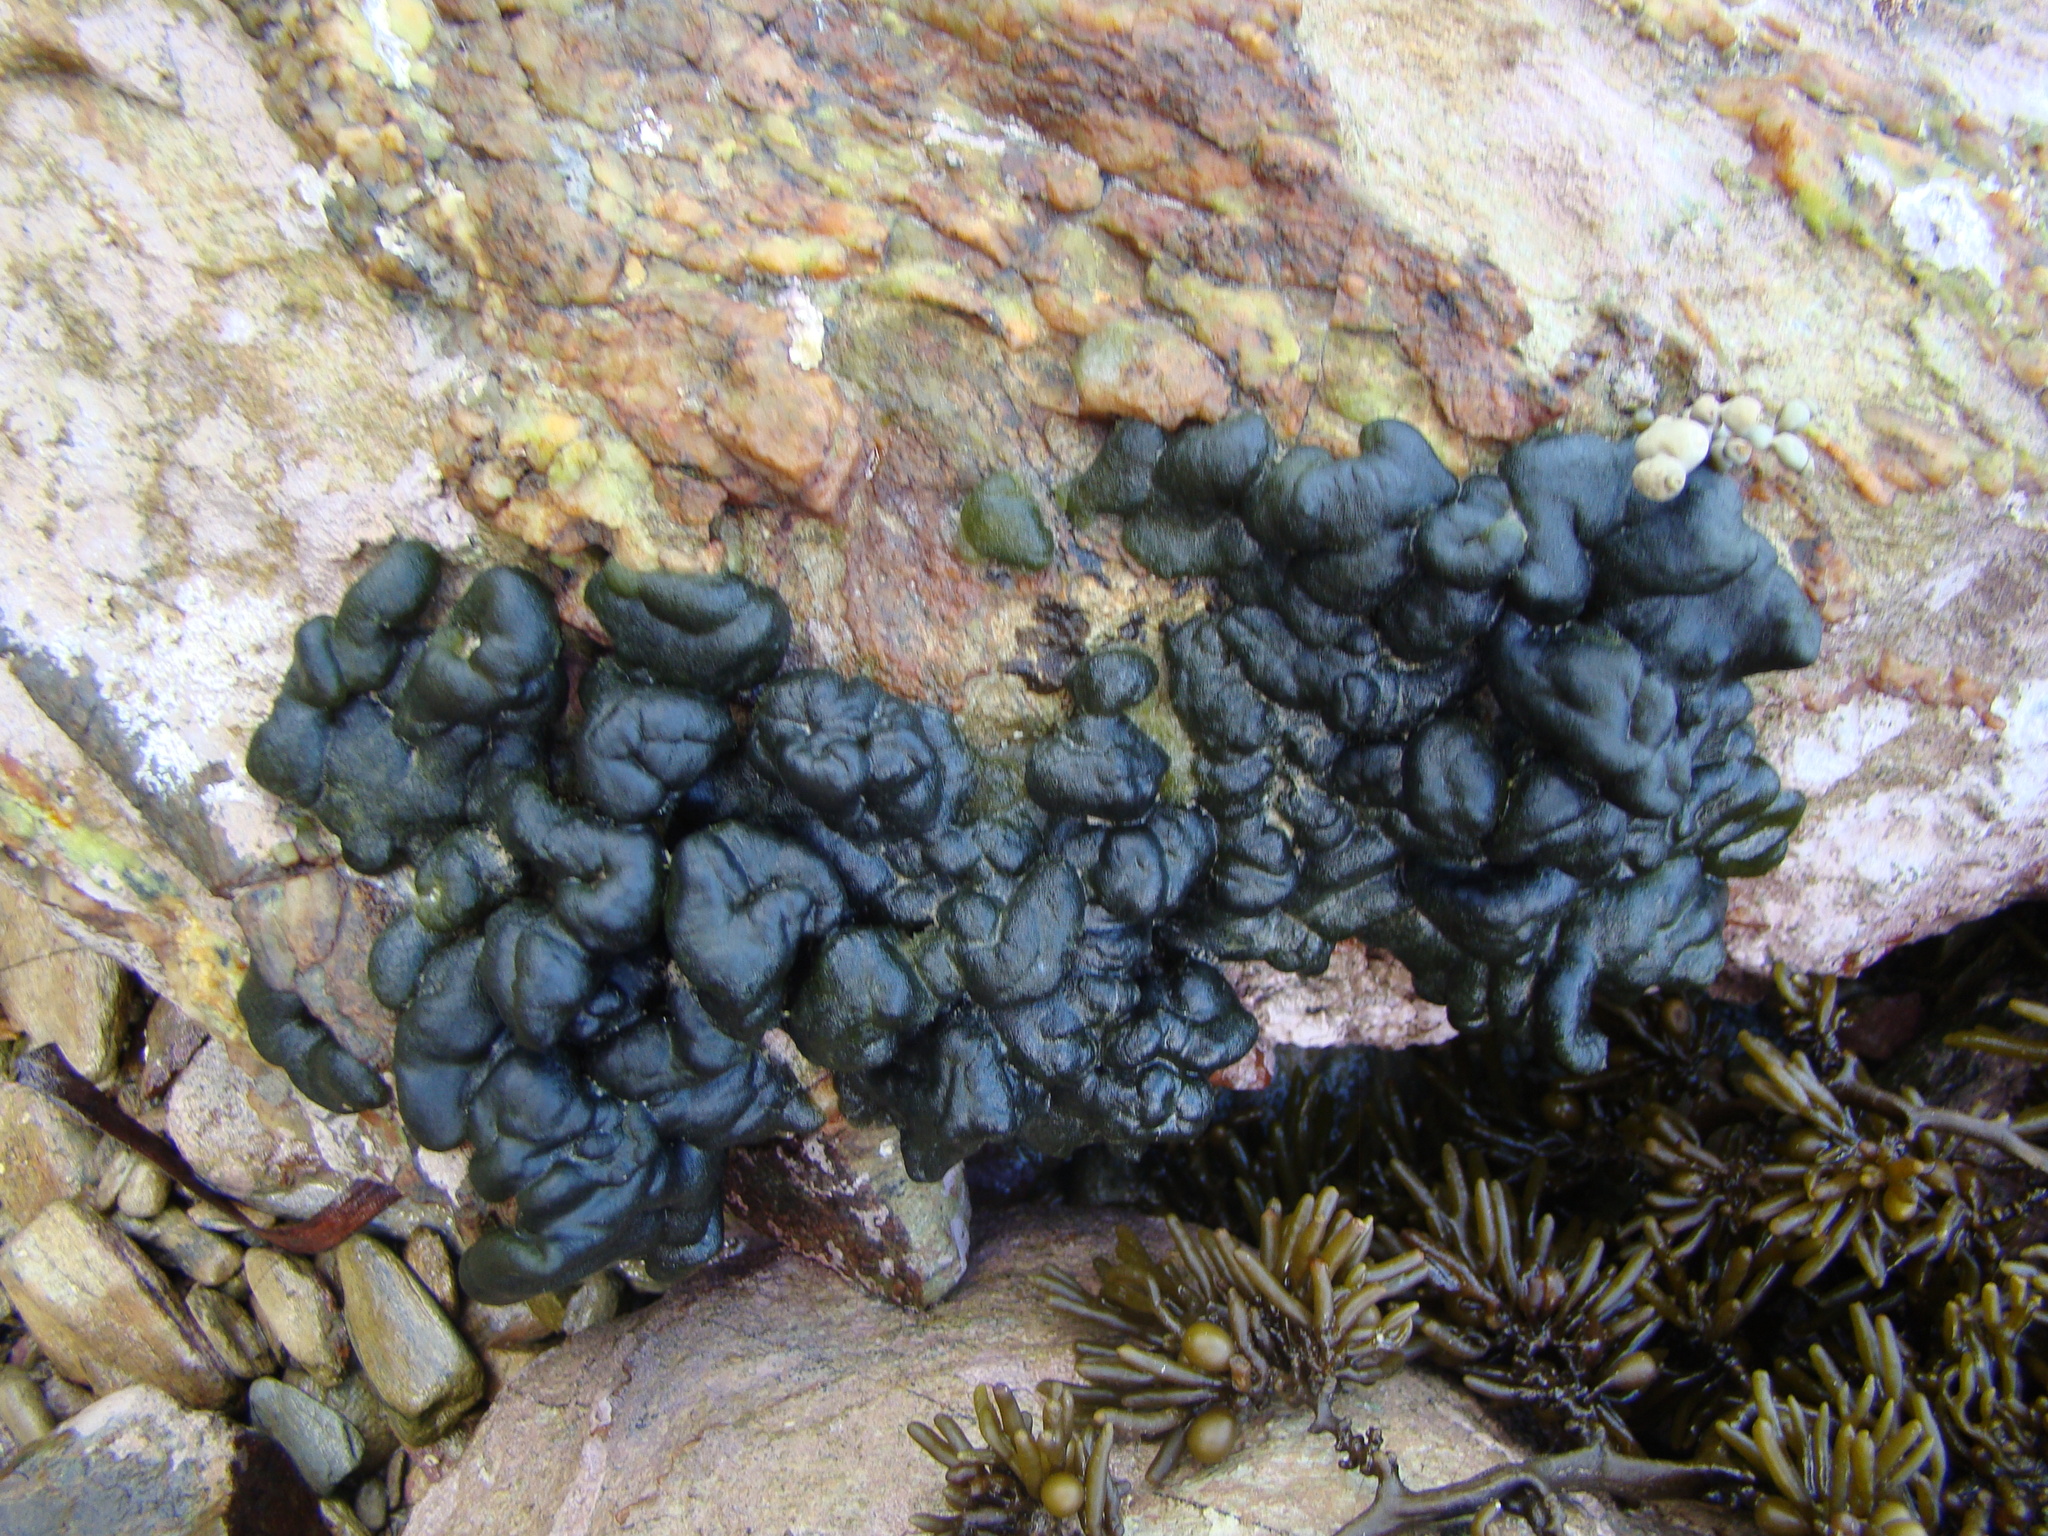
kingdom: Plantae
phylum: Chlorophyta
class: Ulvophyceae
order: Bryopsidales
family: Codiaceae
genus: Codium
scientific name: Codium convolutum
